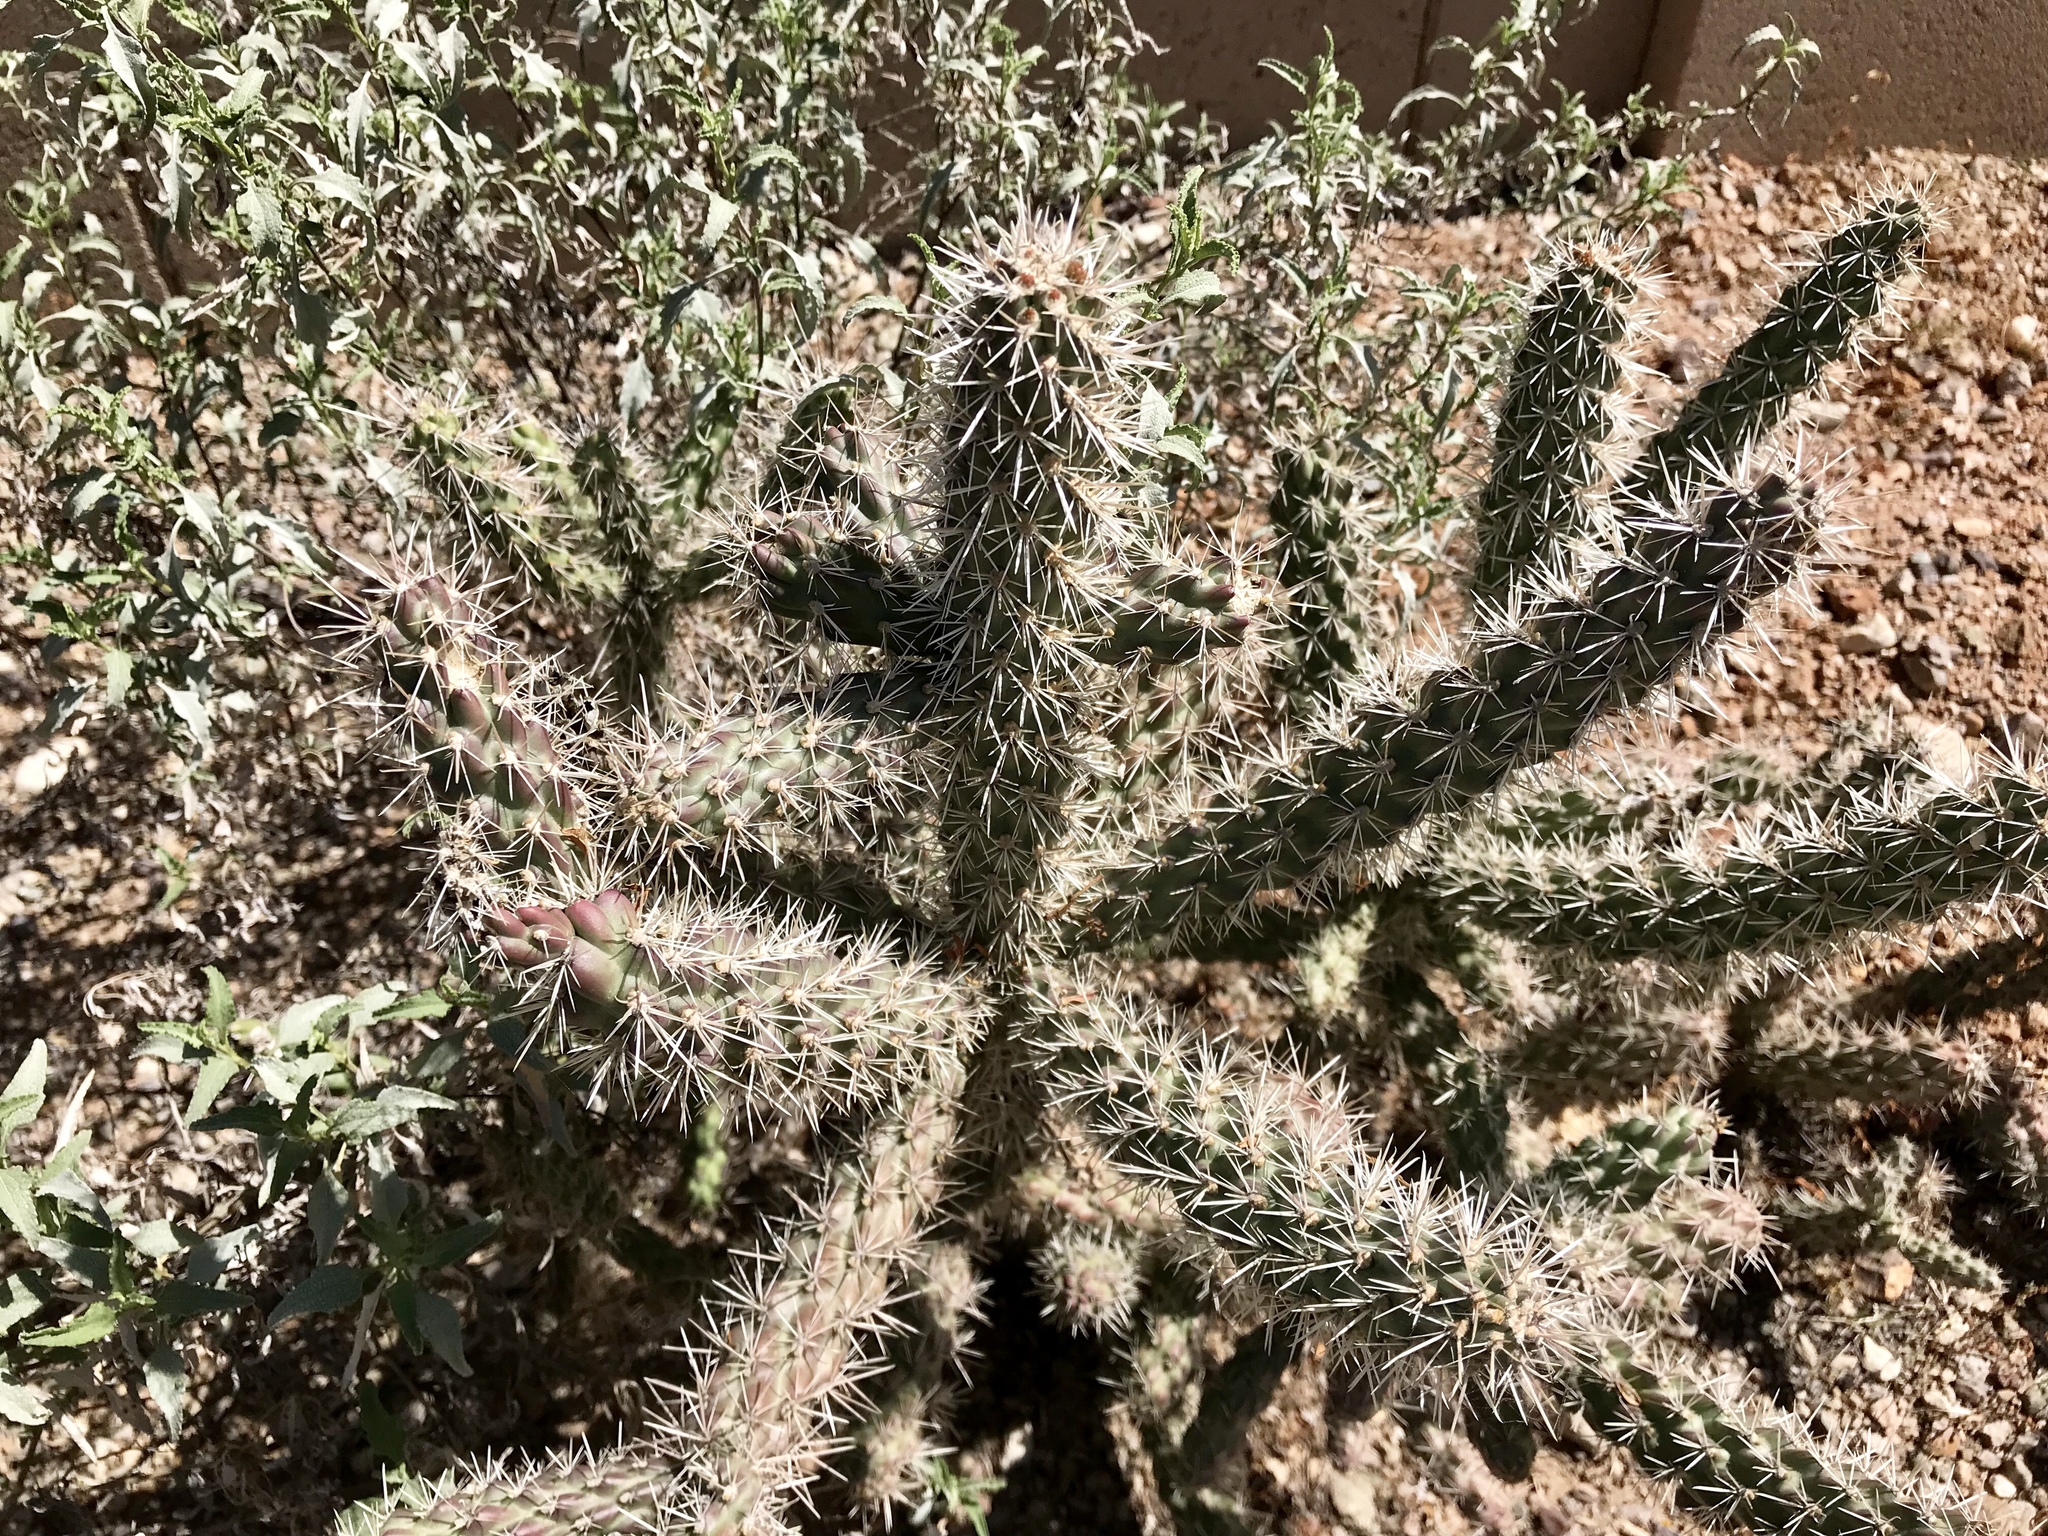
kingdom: Plantae
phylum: Tracheophyta
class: Magnoliopsida
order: Caryophyllales
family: Cactaceae
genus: Cylindropuntia
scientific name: Cylindropuntia imbricata
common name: Candelabrum cactus
